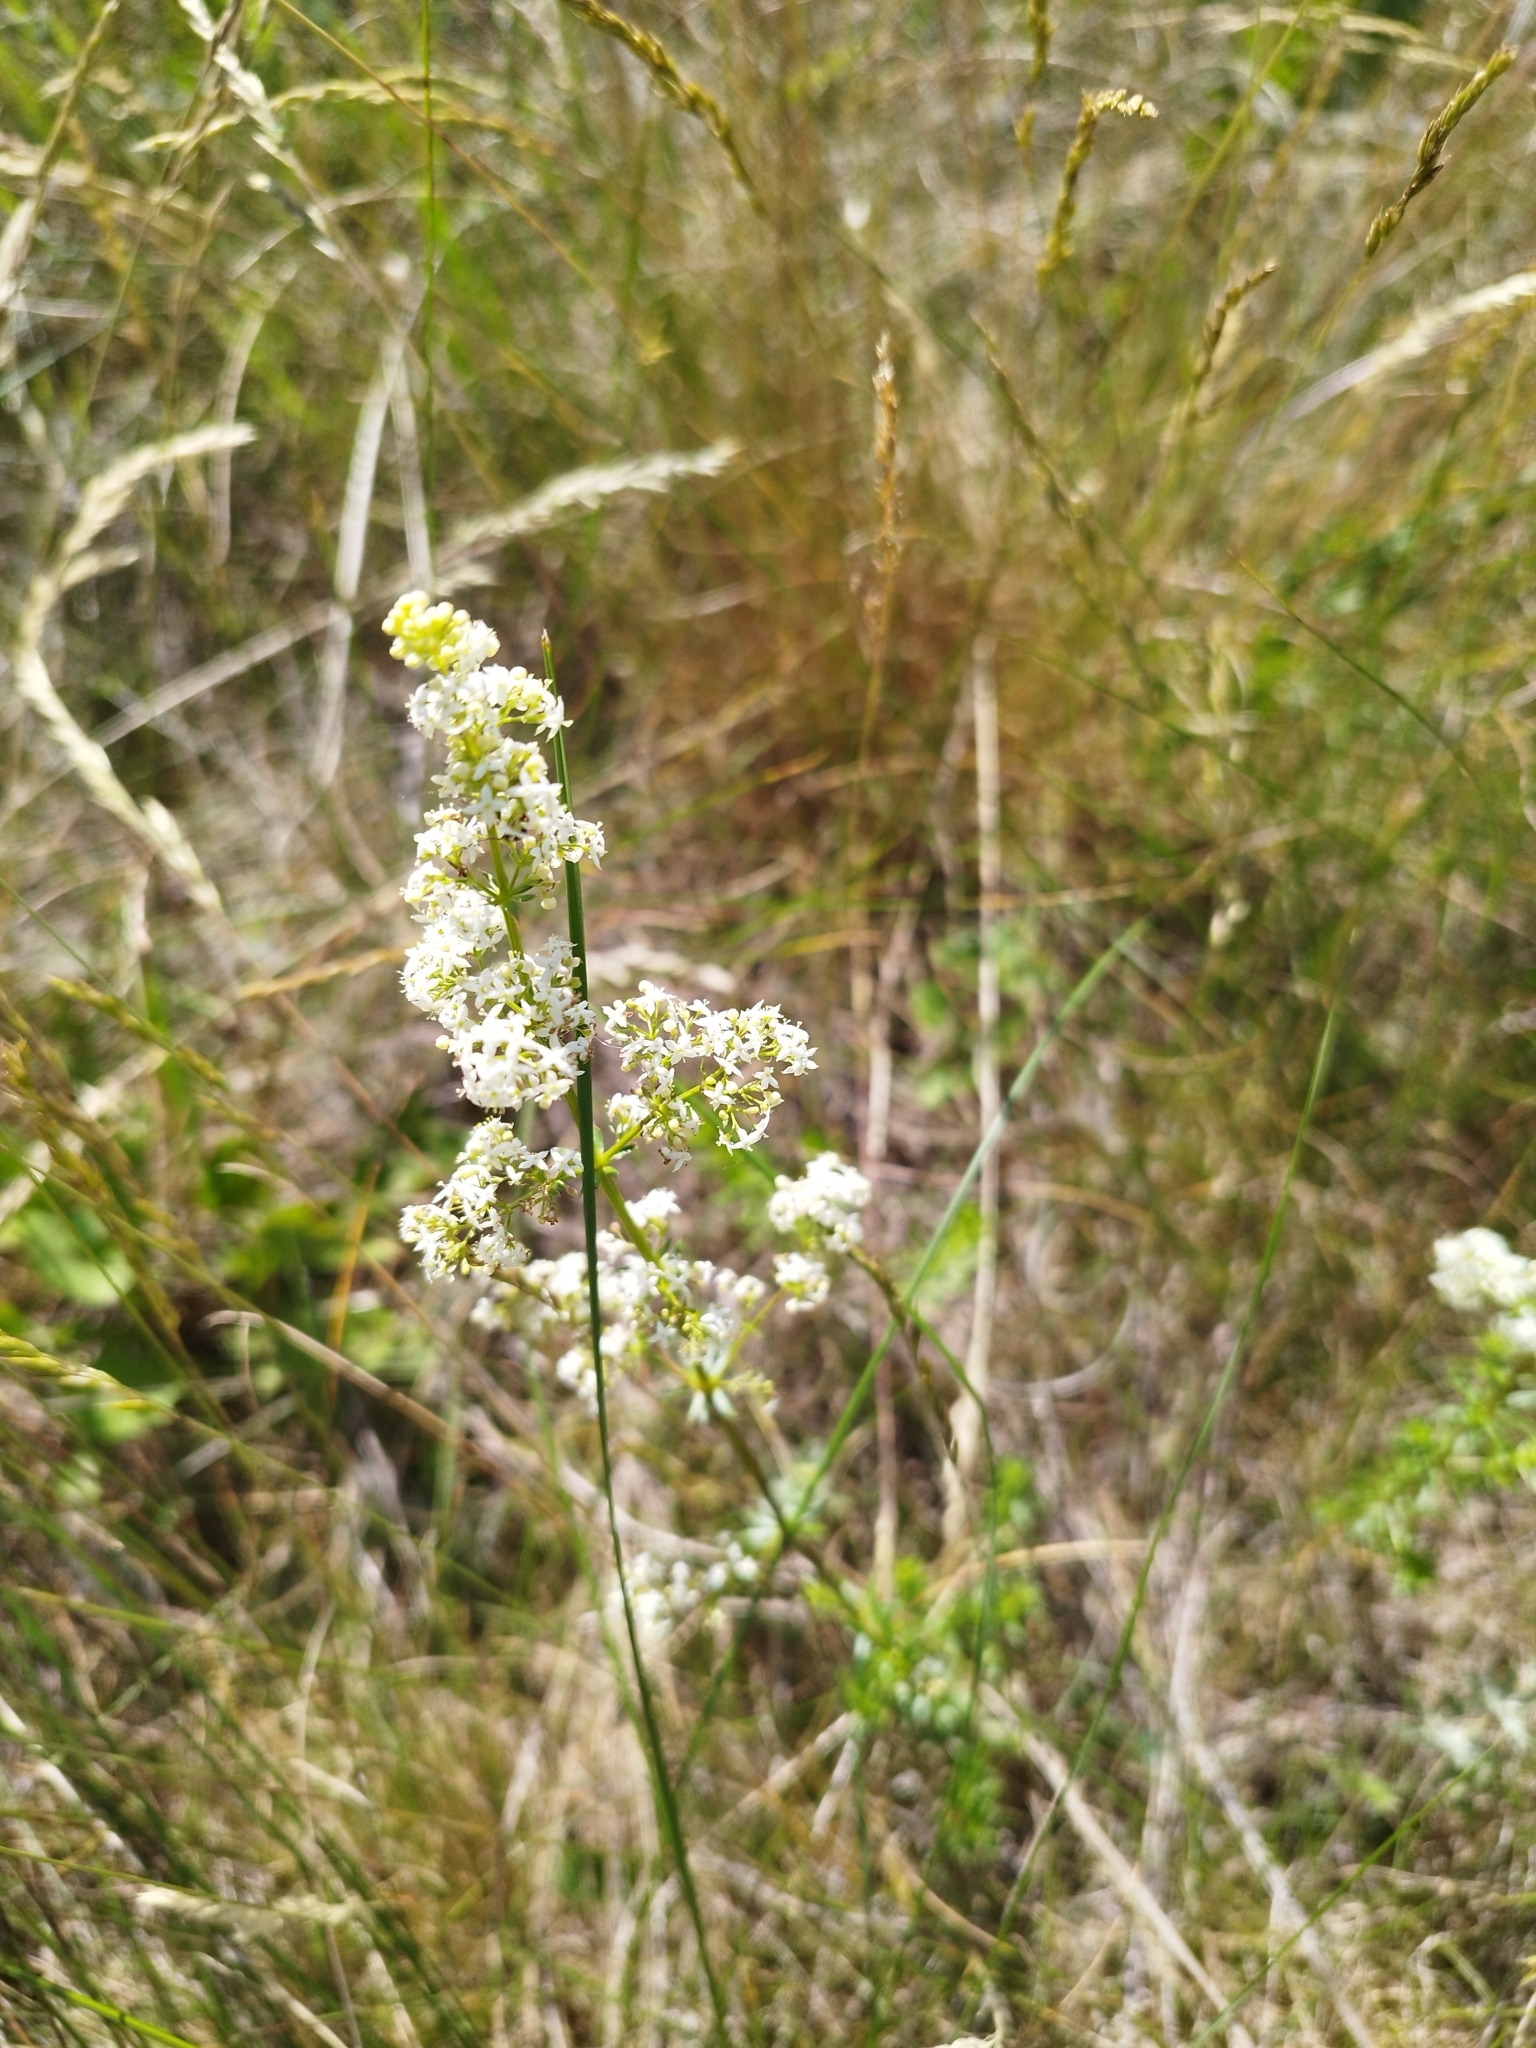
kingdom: Plantae
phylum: Tracheophyta
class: Magnoliopsida
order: Gentianales
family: Rubiaceae
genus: Galium
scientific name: Galium mollugo
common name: Hedge bedstraw
